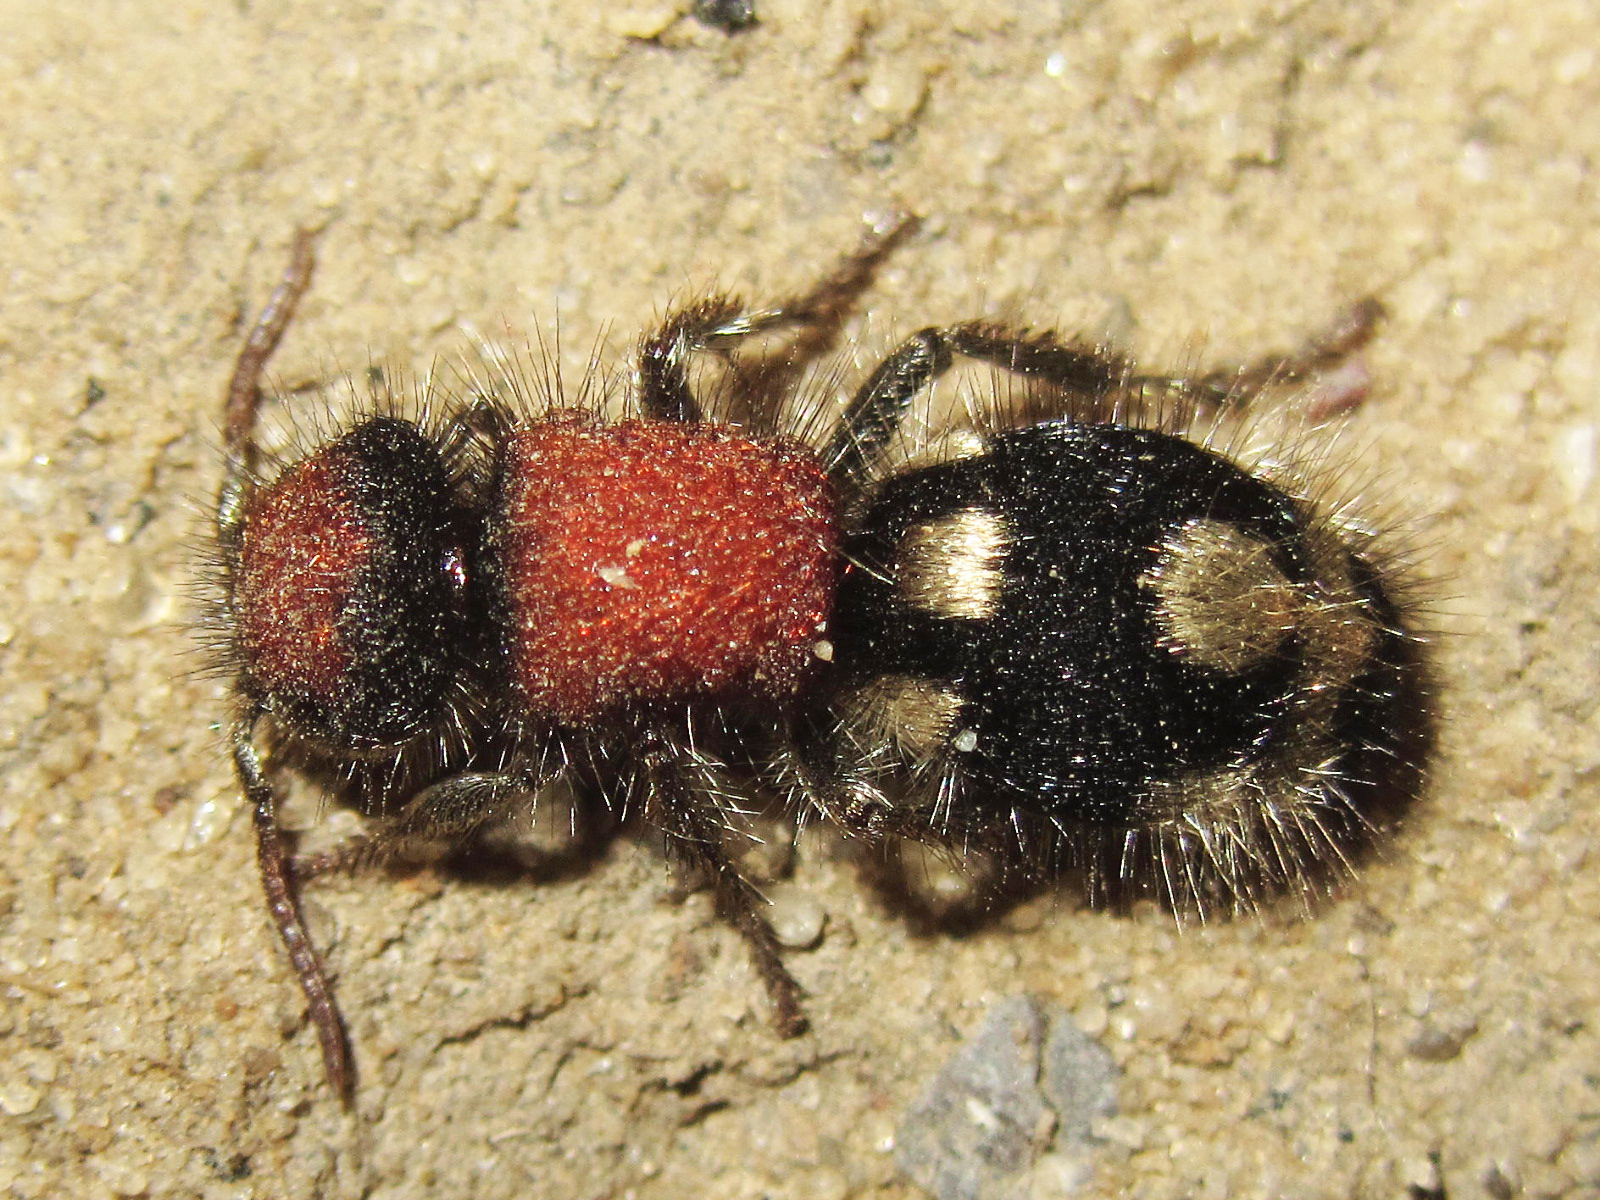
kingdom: Animalia
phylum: Arthropoda
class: Insecta
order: Hymenoptera
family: Mutillidae
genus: Ronisia
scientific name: Ronisia brutia
